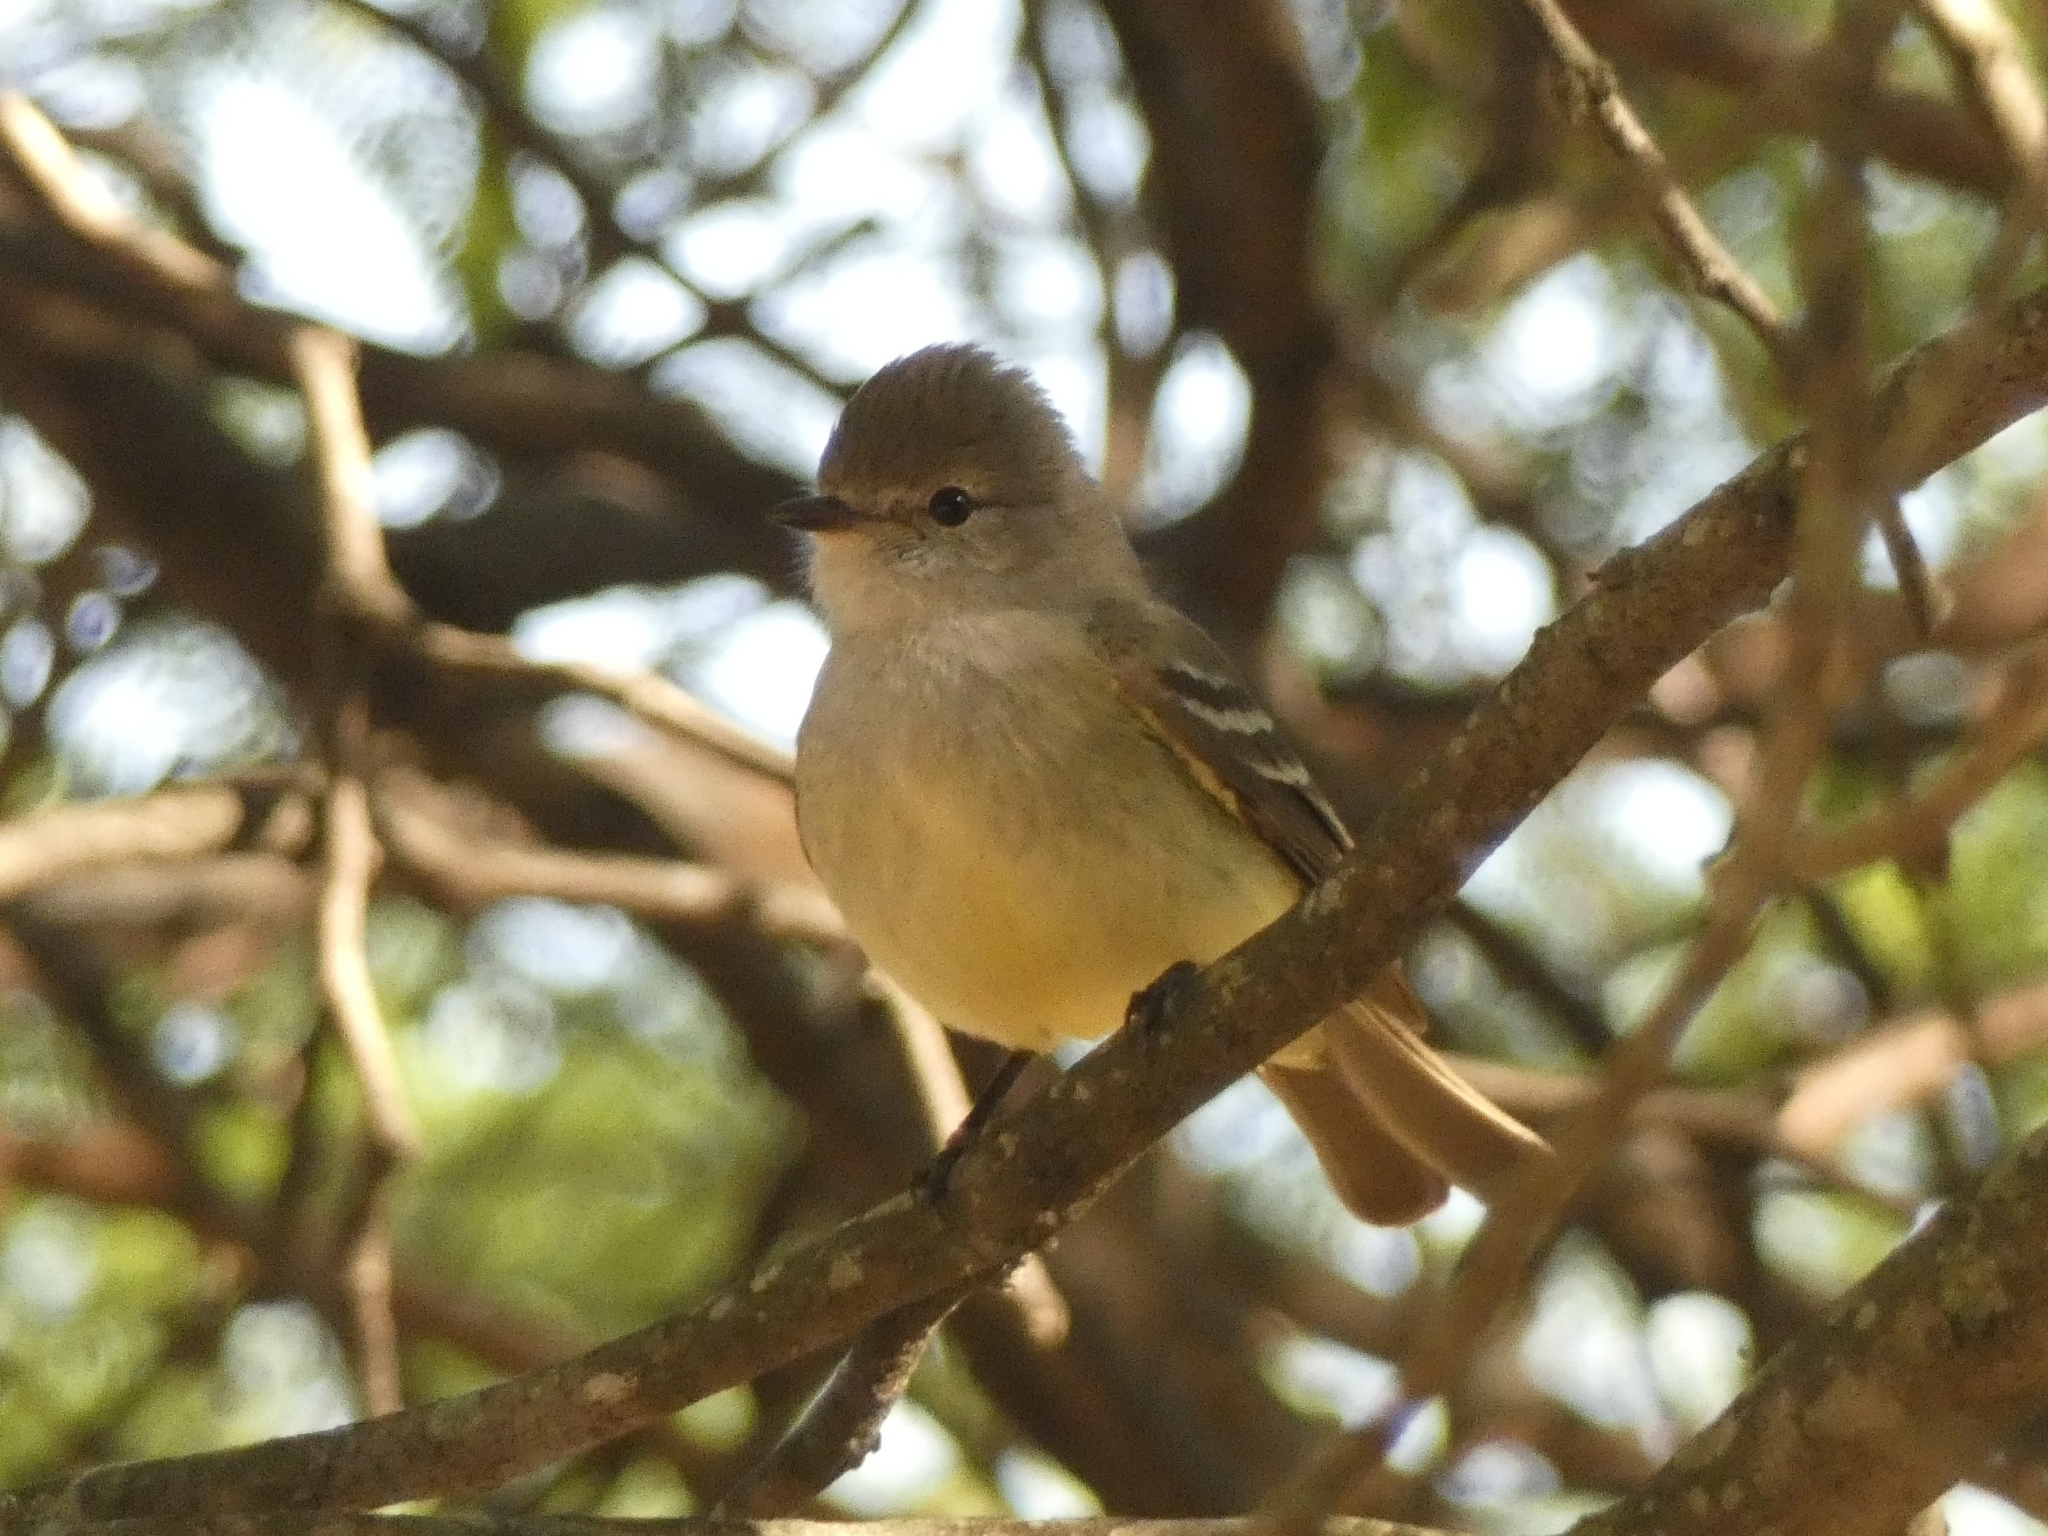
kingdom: Animalia
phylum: Chordata
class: Aves
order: Passeriformes
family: Tyrannidae
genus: Camptostoma
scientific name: Camptostoma obsoletum
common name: Southern beardless-tyrannulet
